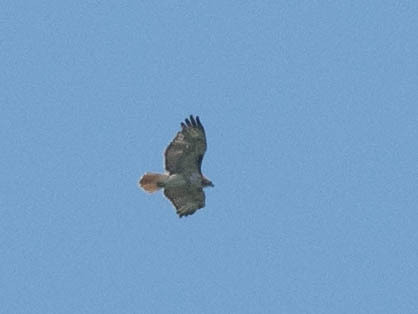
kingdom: Animalia
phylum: Chordata
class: Aves
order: Accipitriformes
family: Accipitridae
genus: Buteo
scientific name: Buteo jamaicensis
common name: Red-tailed hawk
